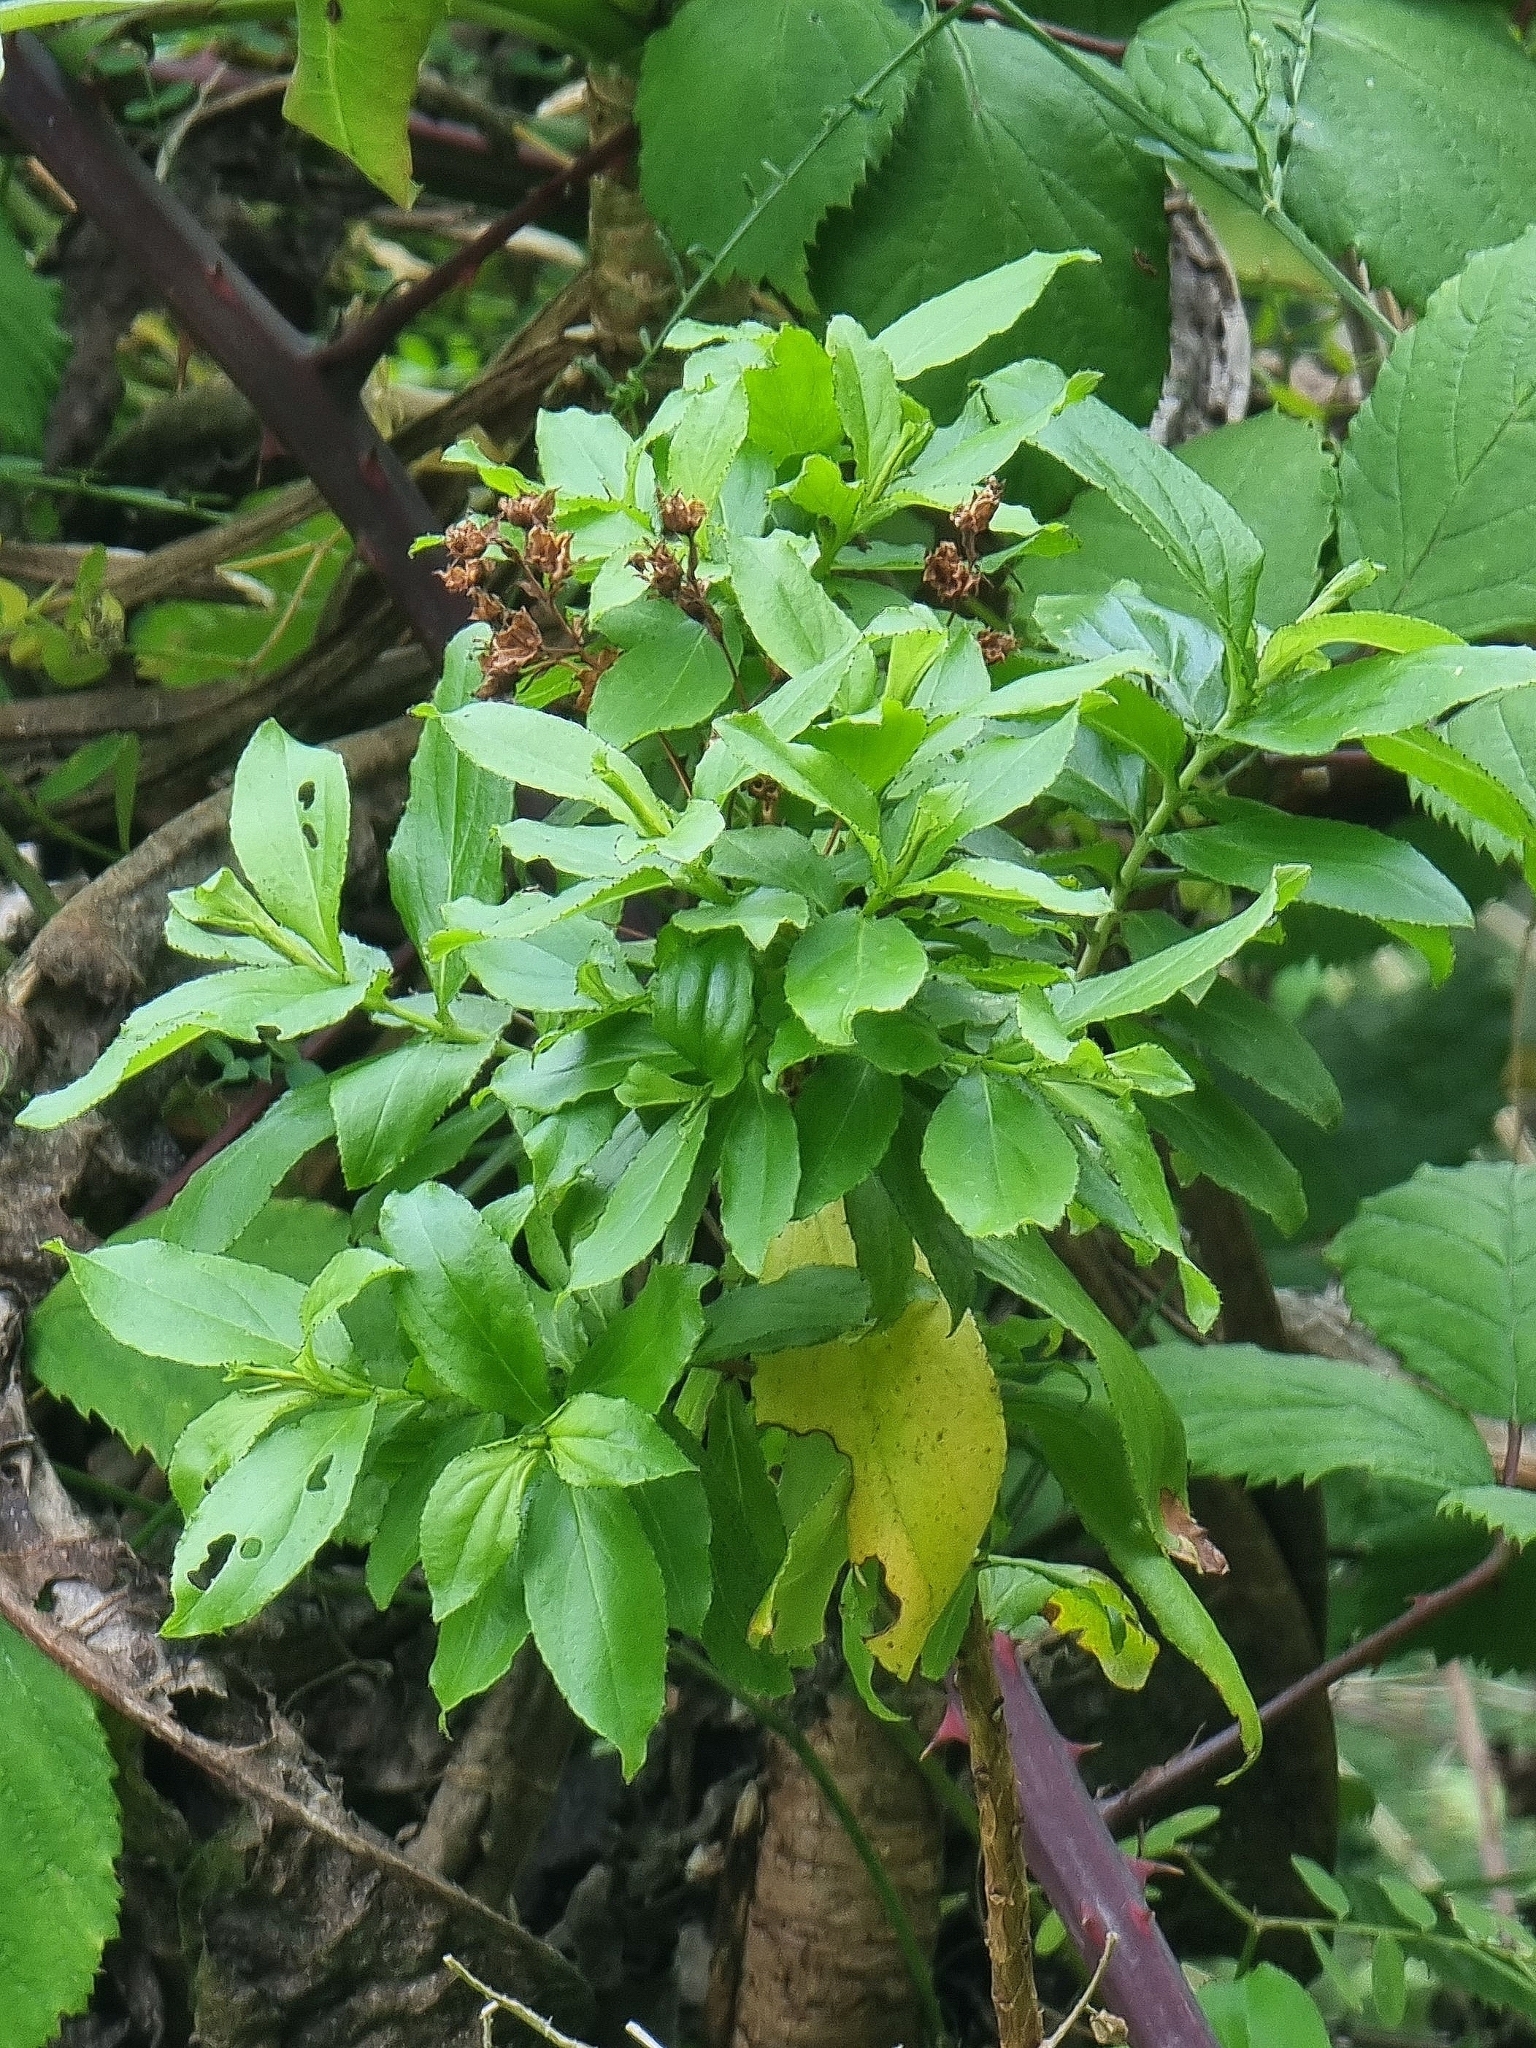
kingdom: Plantae
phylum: Tracheophyta
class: Magnoliopsida
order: Malpighiales
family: Hypericaceae
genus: Hypericum
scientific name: Hypericum glandulosum
